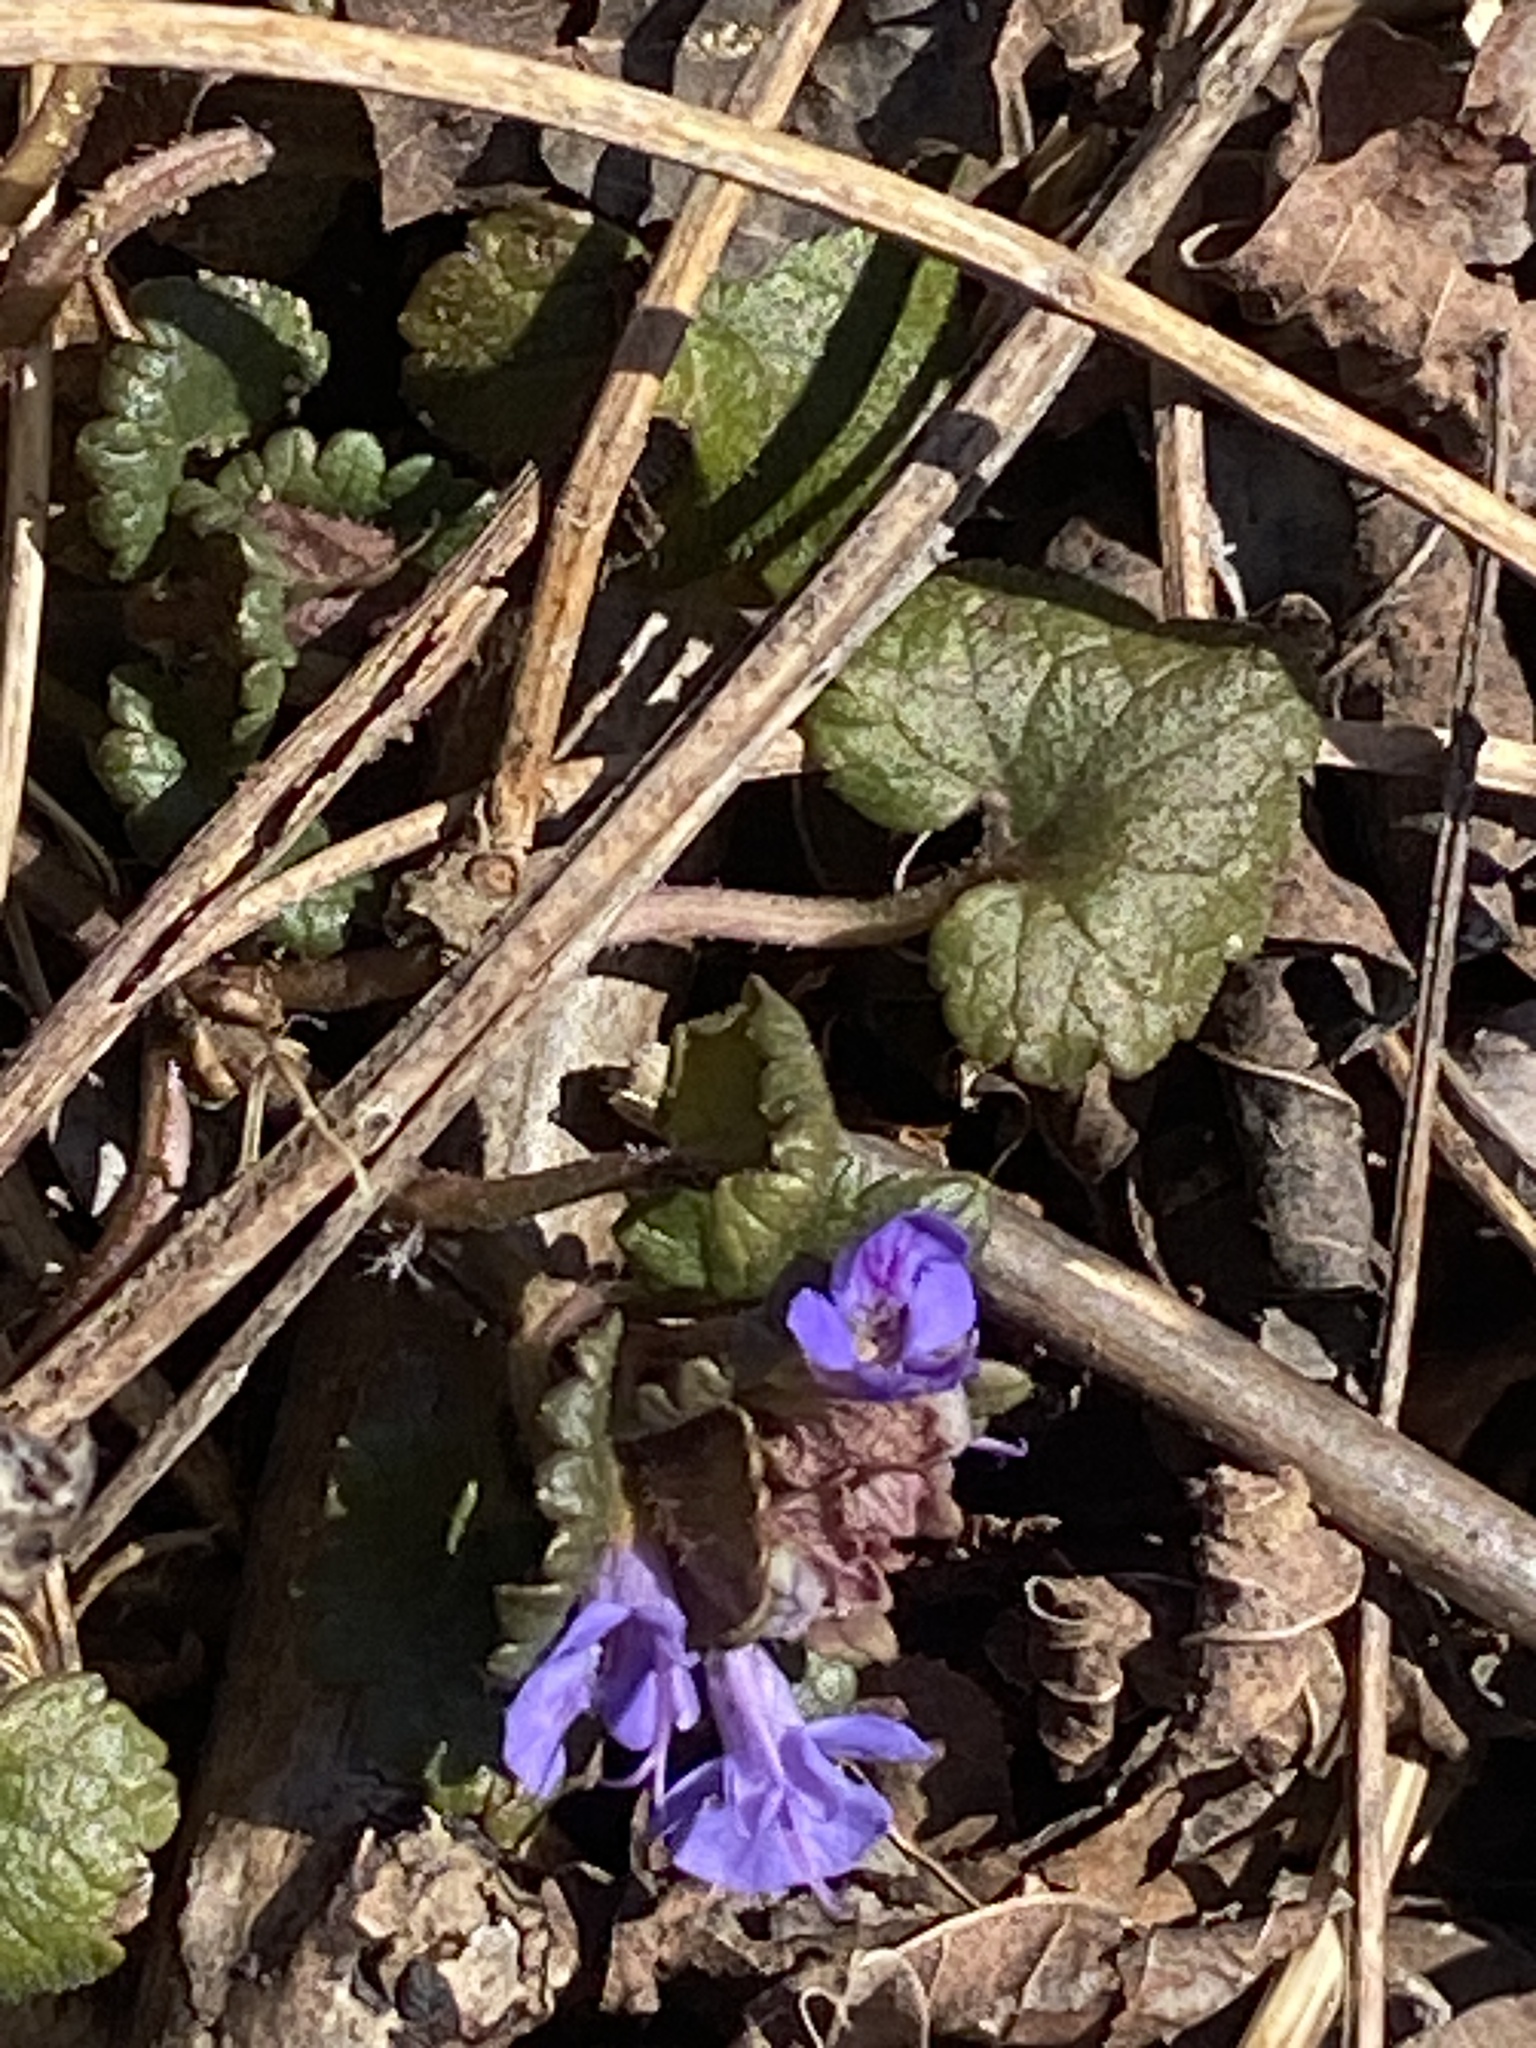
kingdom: Plantae
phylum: Tracheophyta
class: Magnoliopsida
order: Lamiales
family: Lamiaceae
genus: Glechoma
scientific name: Glechoma hederacea
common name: Ground ivy
